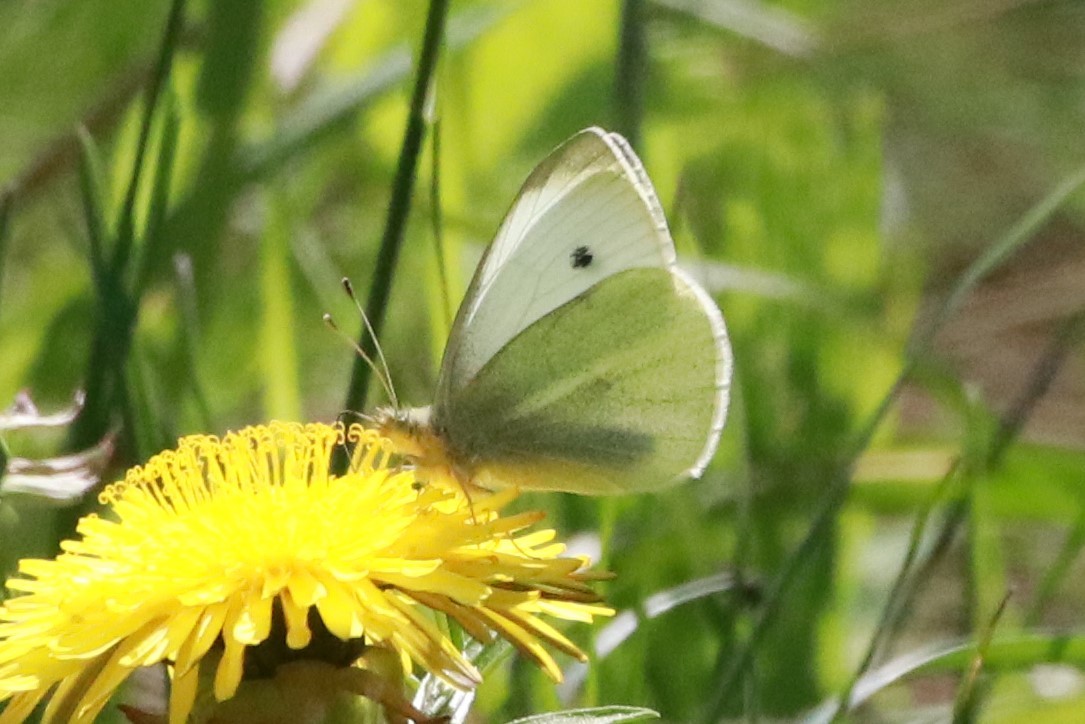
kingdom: Animalia
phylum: Arthropoda
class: Insecta
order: Lepidoptera
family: Pieridae
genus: Pieris
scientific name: Pieris rapae
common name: Small white
